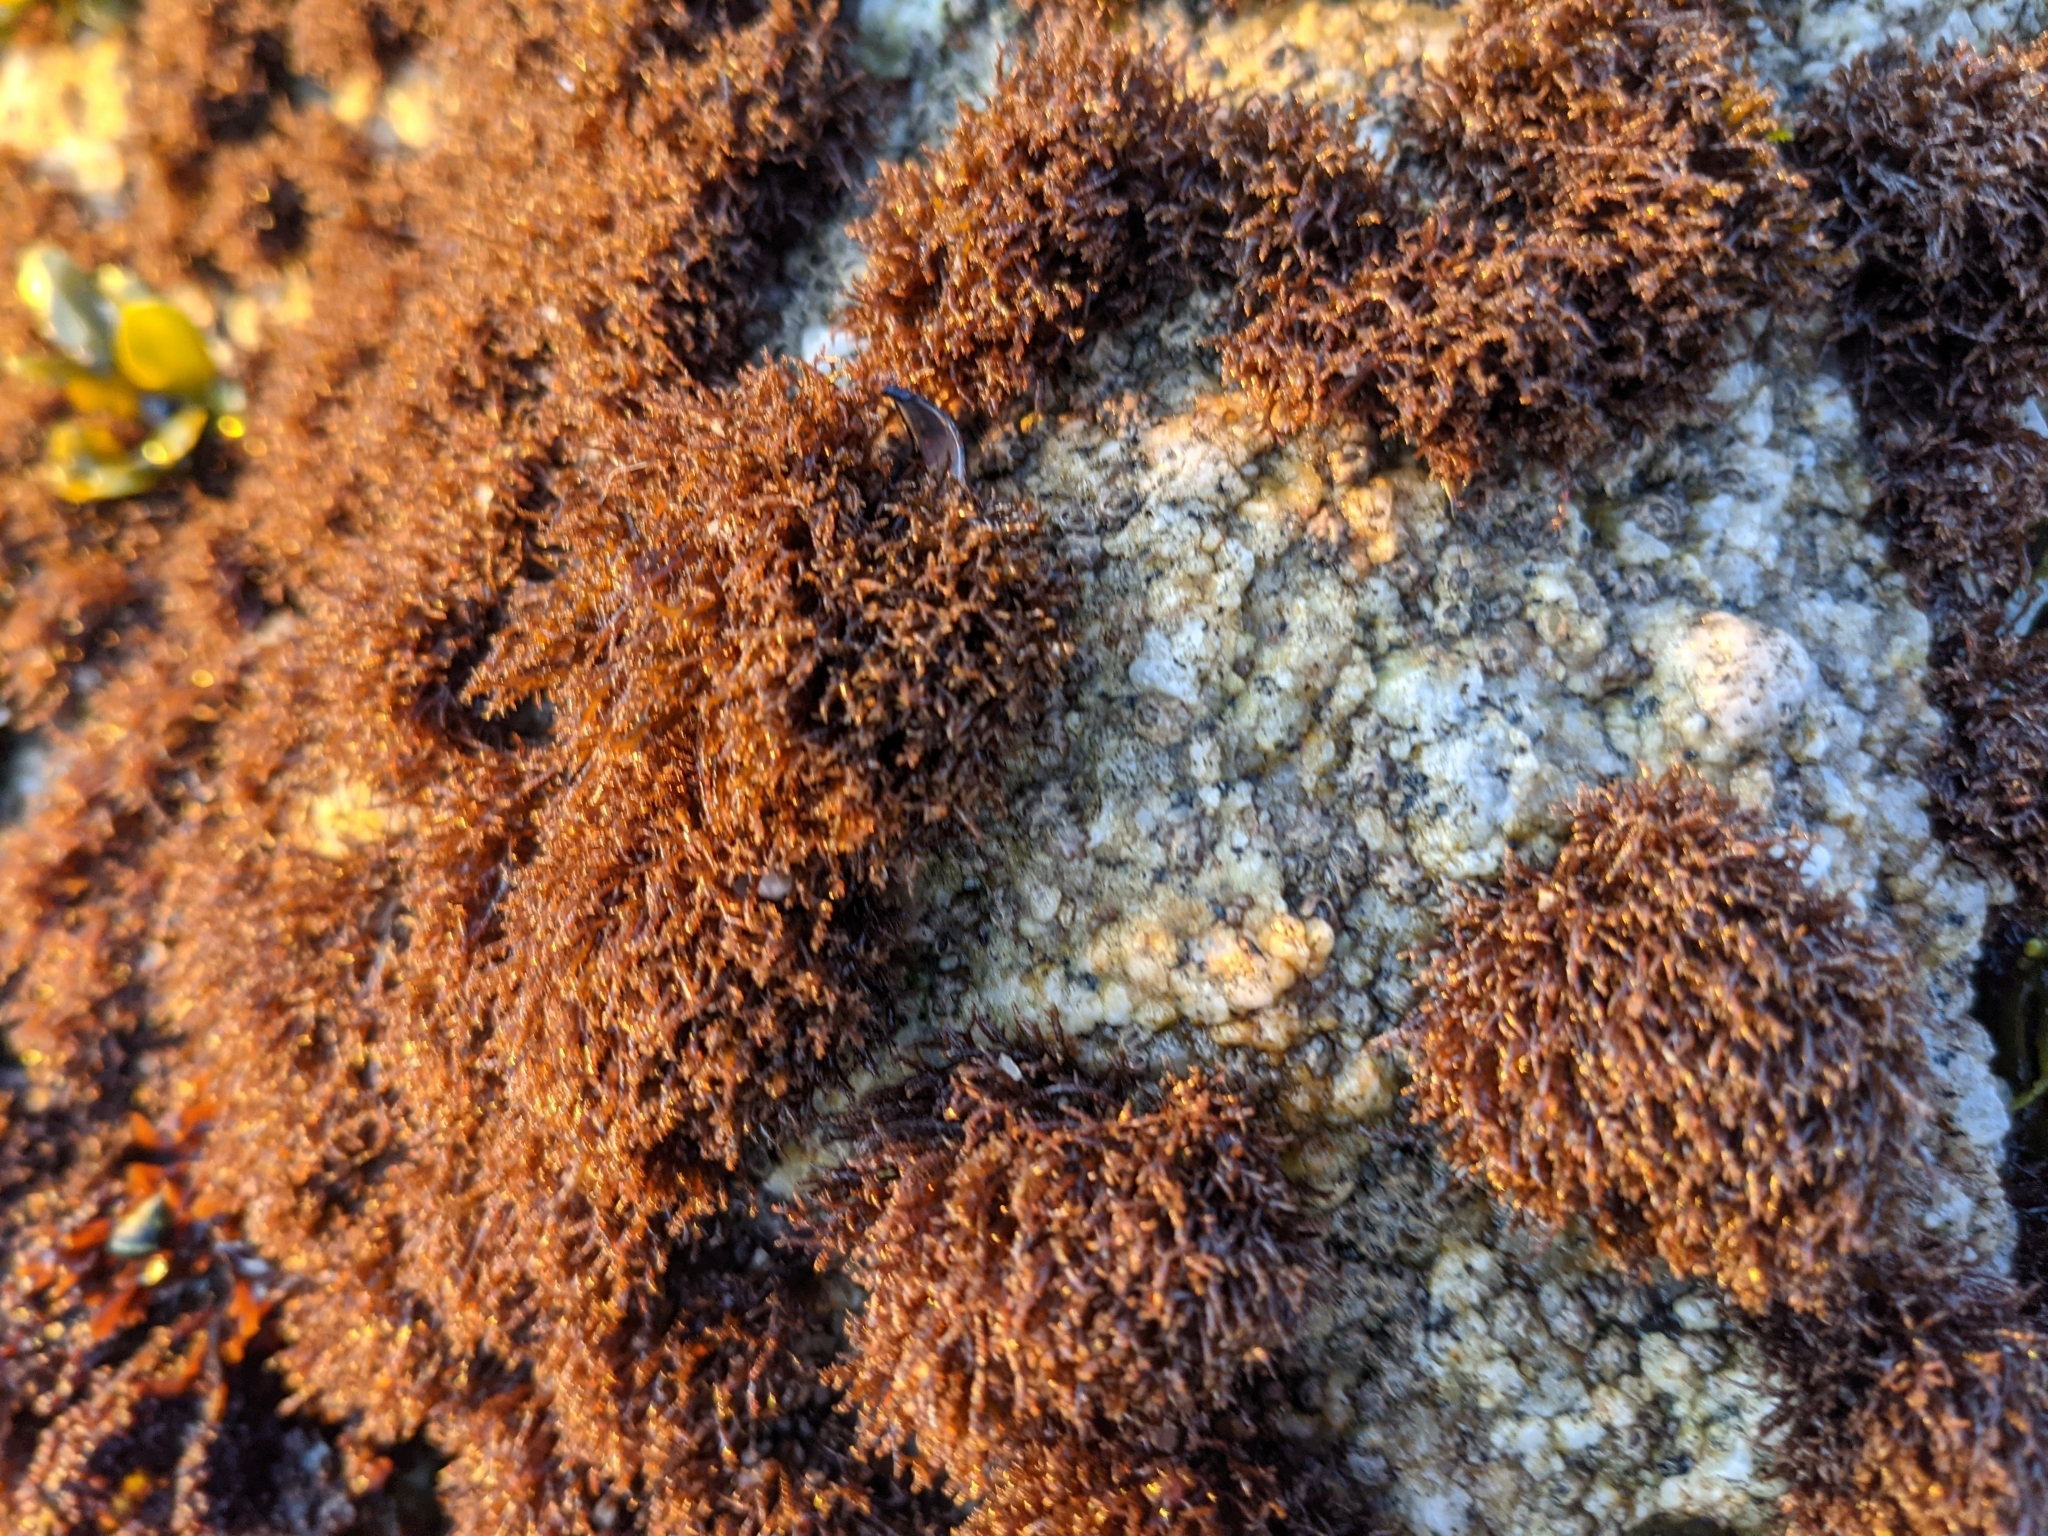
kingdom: Plantae
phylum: Rhodophyta
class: Florideophyceae
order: Gigartinales
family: Endocladiaceae
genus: Endocladia
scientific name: Endocladia muricata
